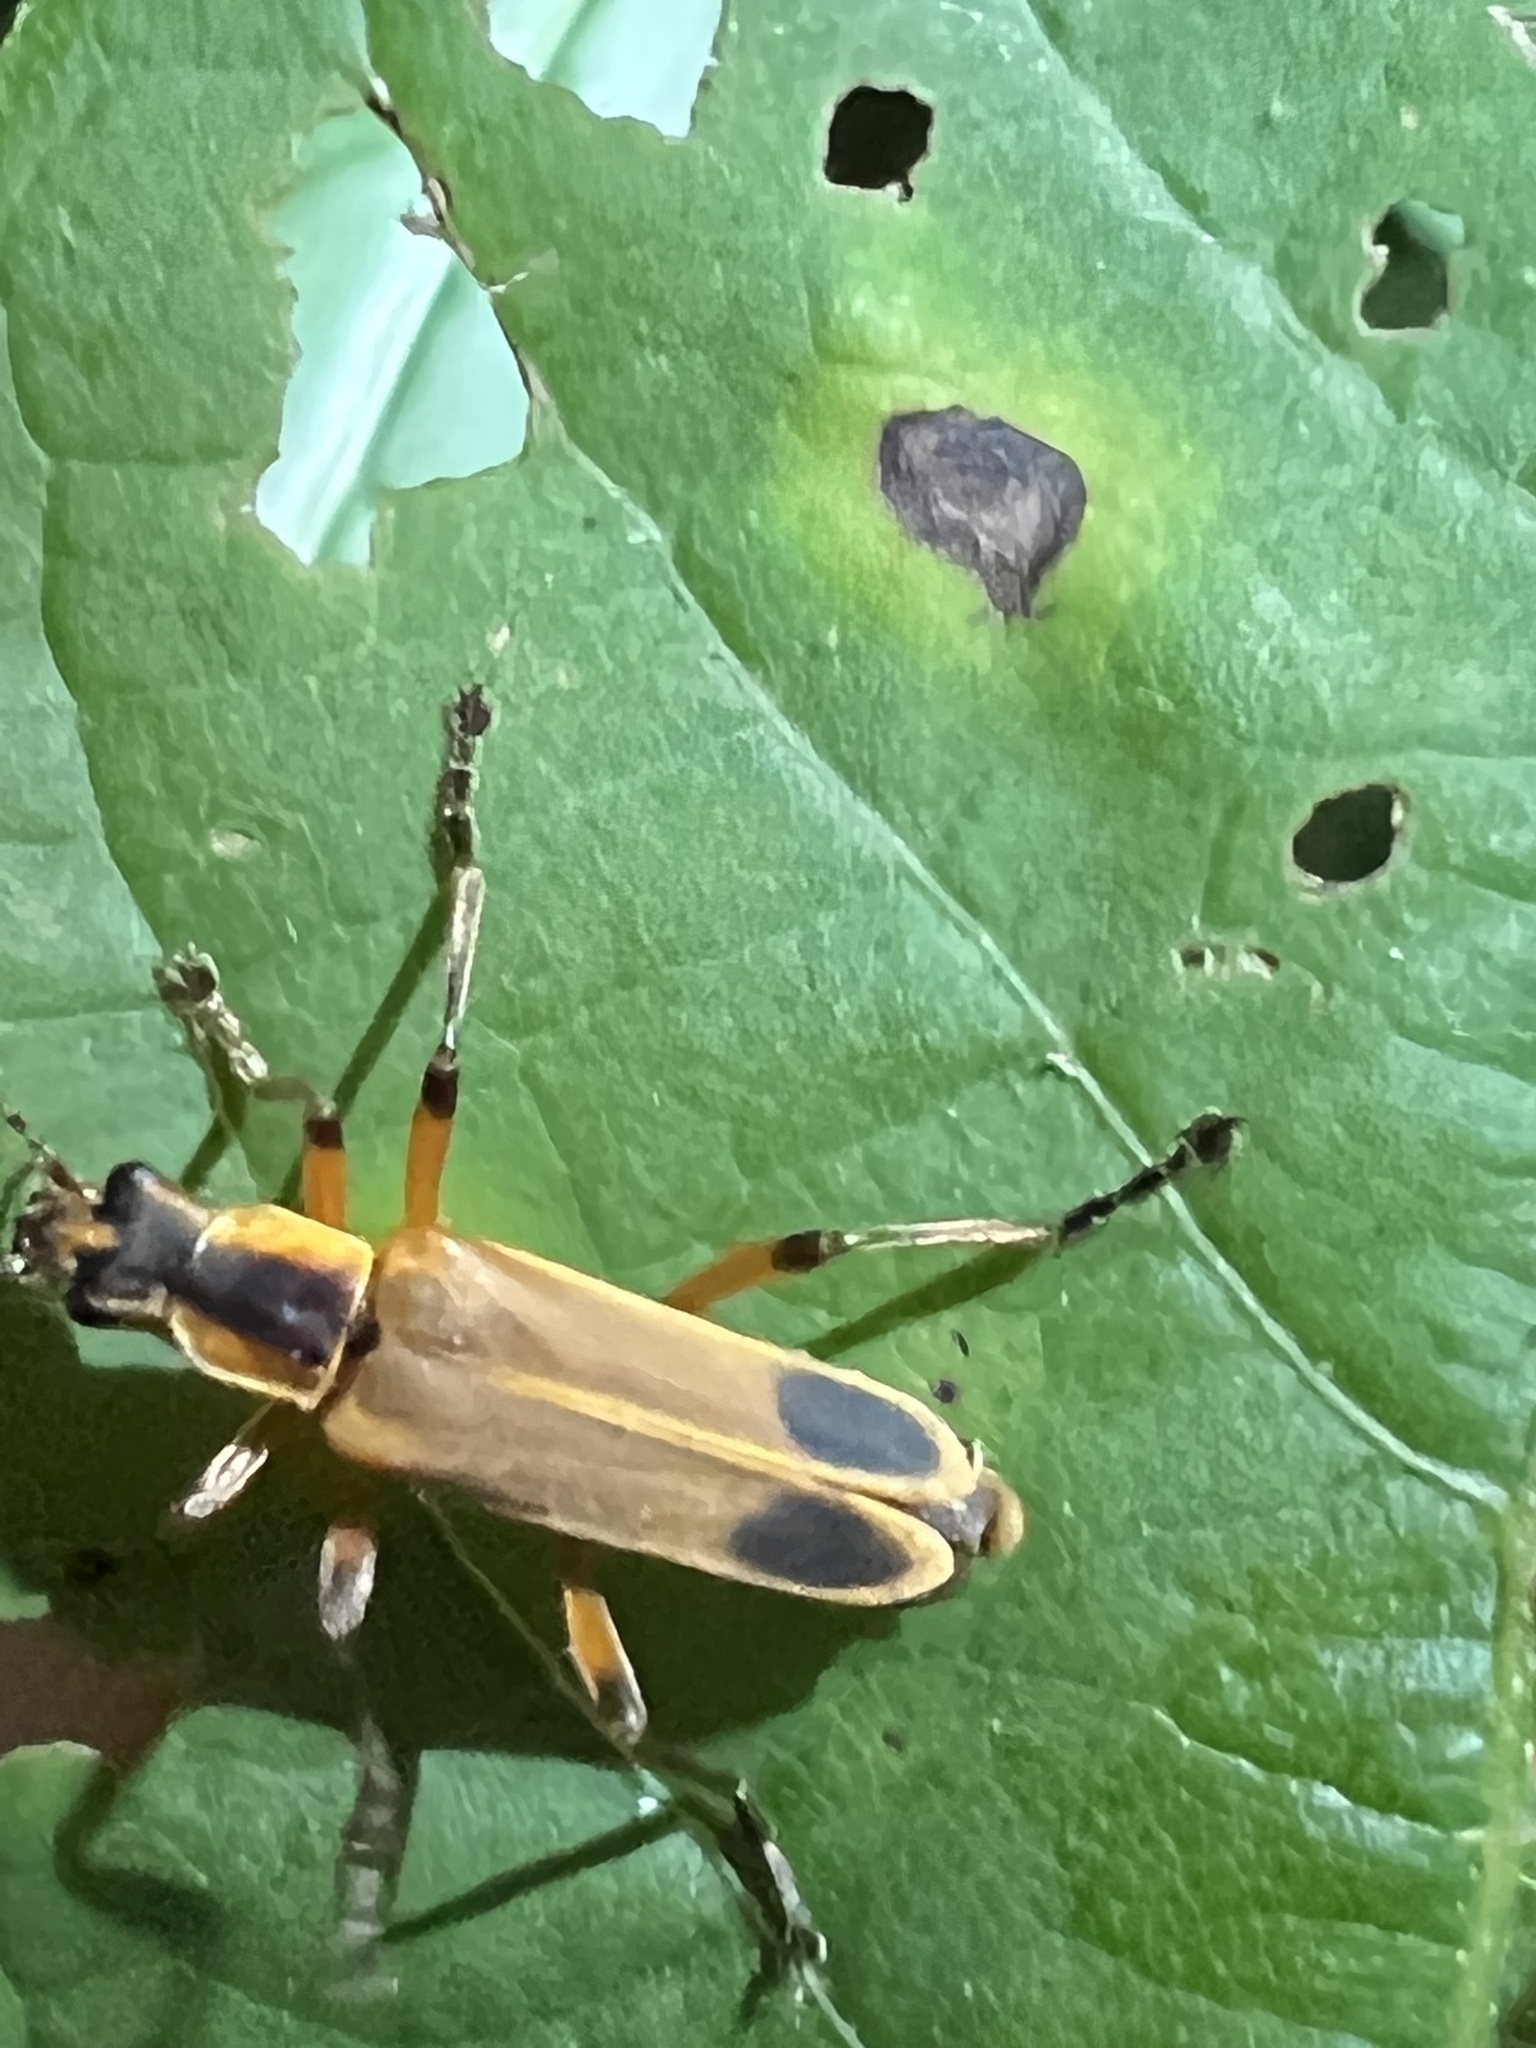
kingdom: Animalia
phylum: Arthropoda
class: Insecta
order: Coleoptera
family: Cantharidae
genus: Chauliognathus
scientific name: Chauliognathus marginatus
